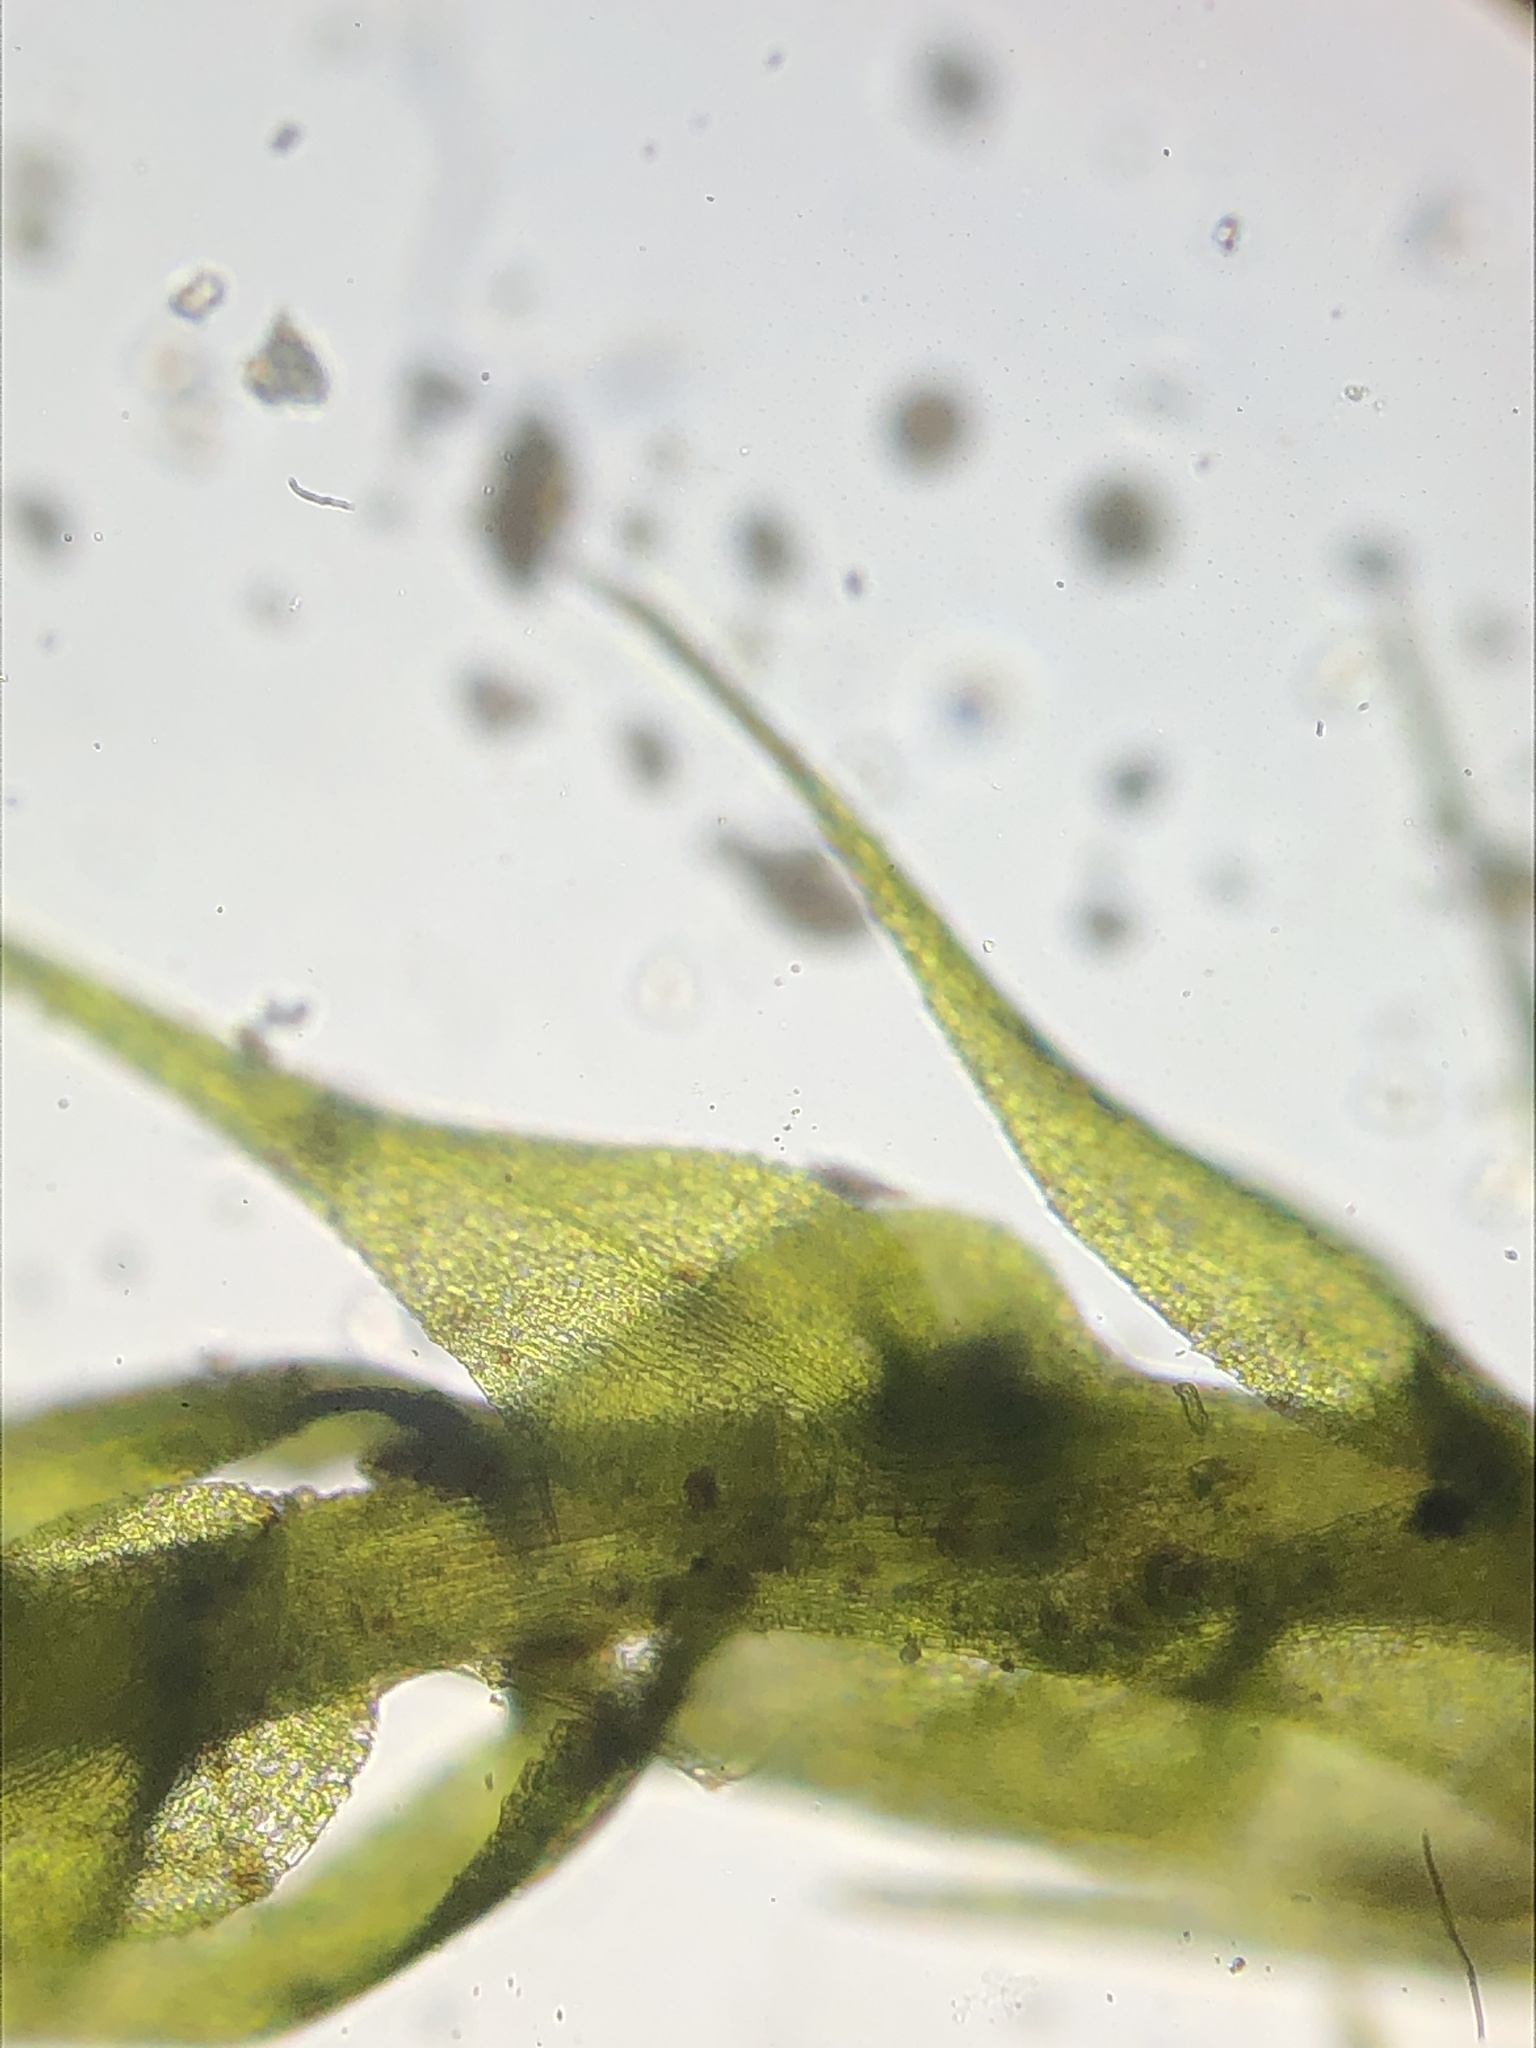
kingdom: Plantae
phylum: Bryophyta
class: Bryopsida
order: Hypnales
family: Amblystegiaceae
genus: Amblystegium
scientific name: Amblystegium serpens
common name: Jurkatzka's feather moss
